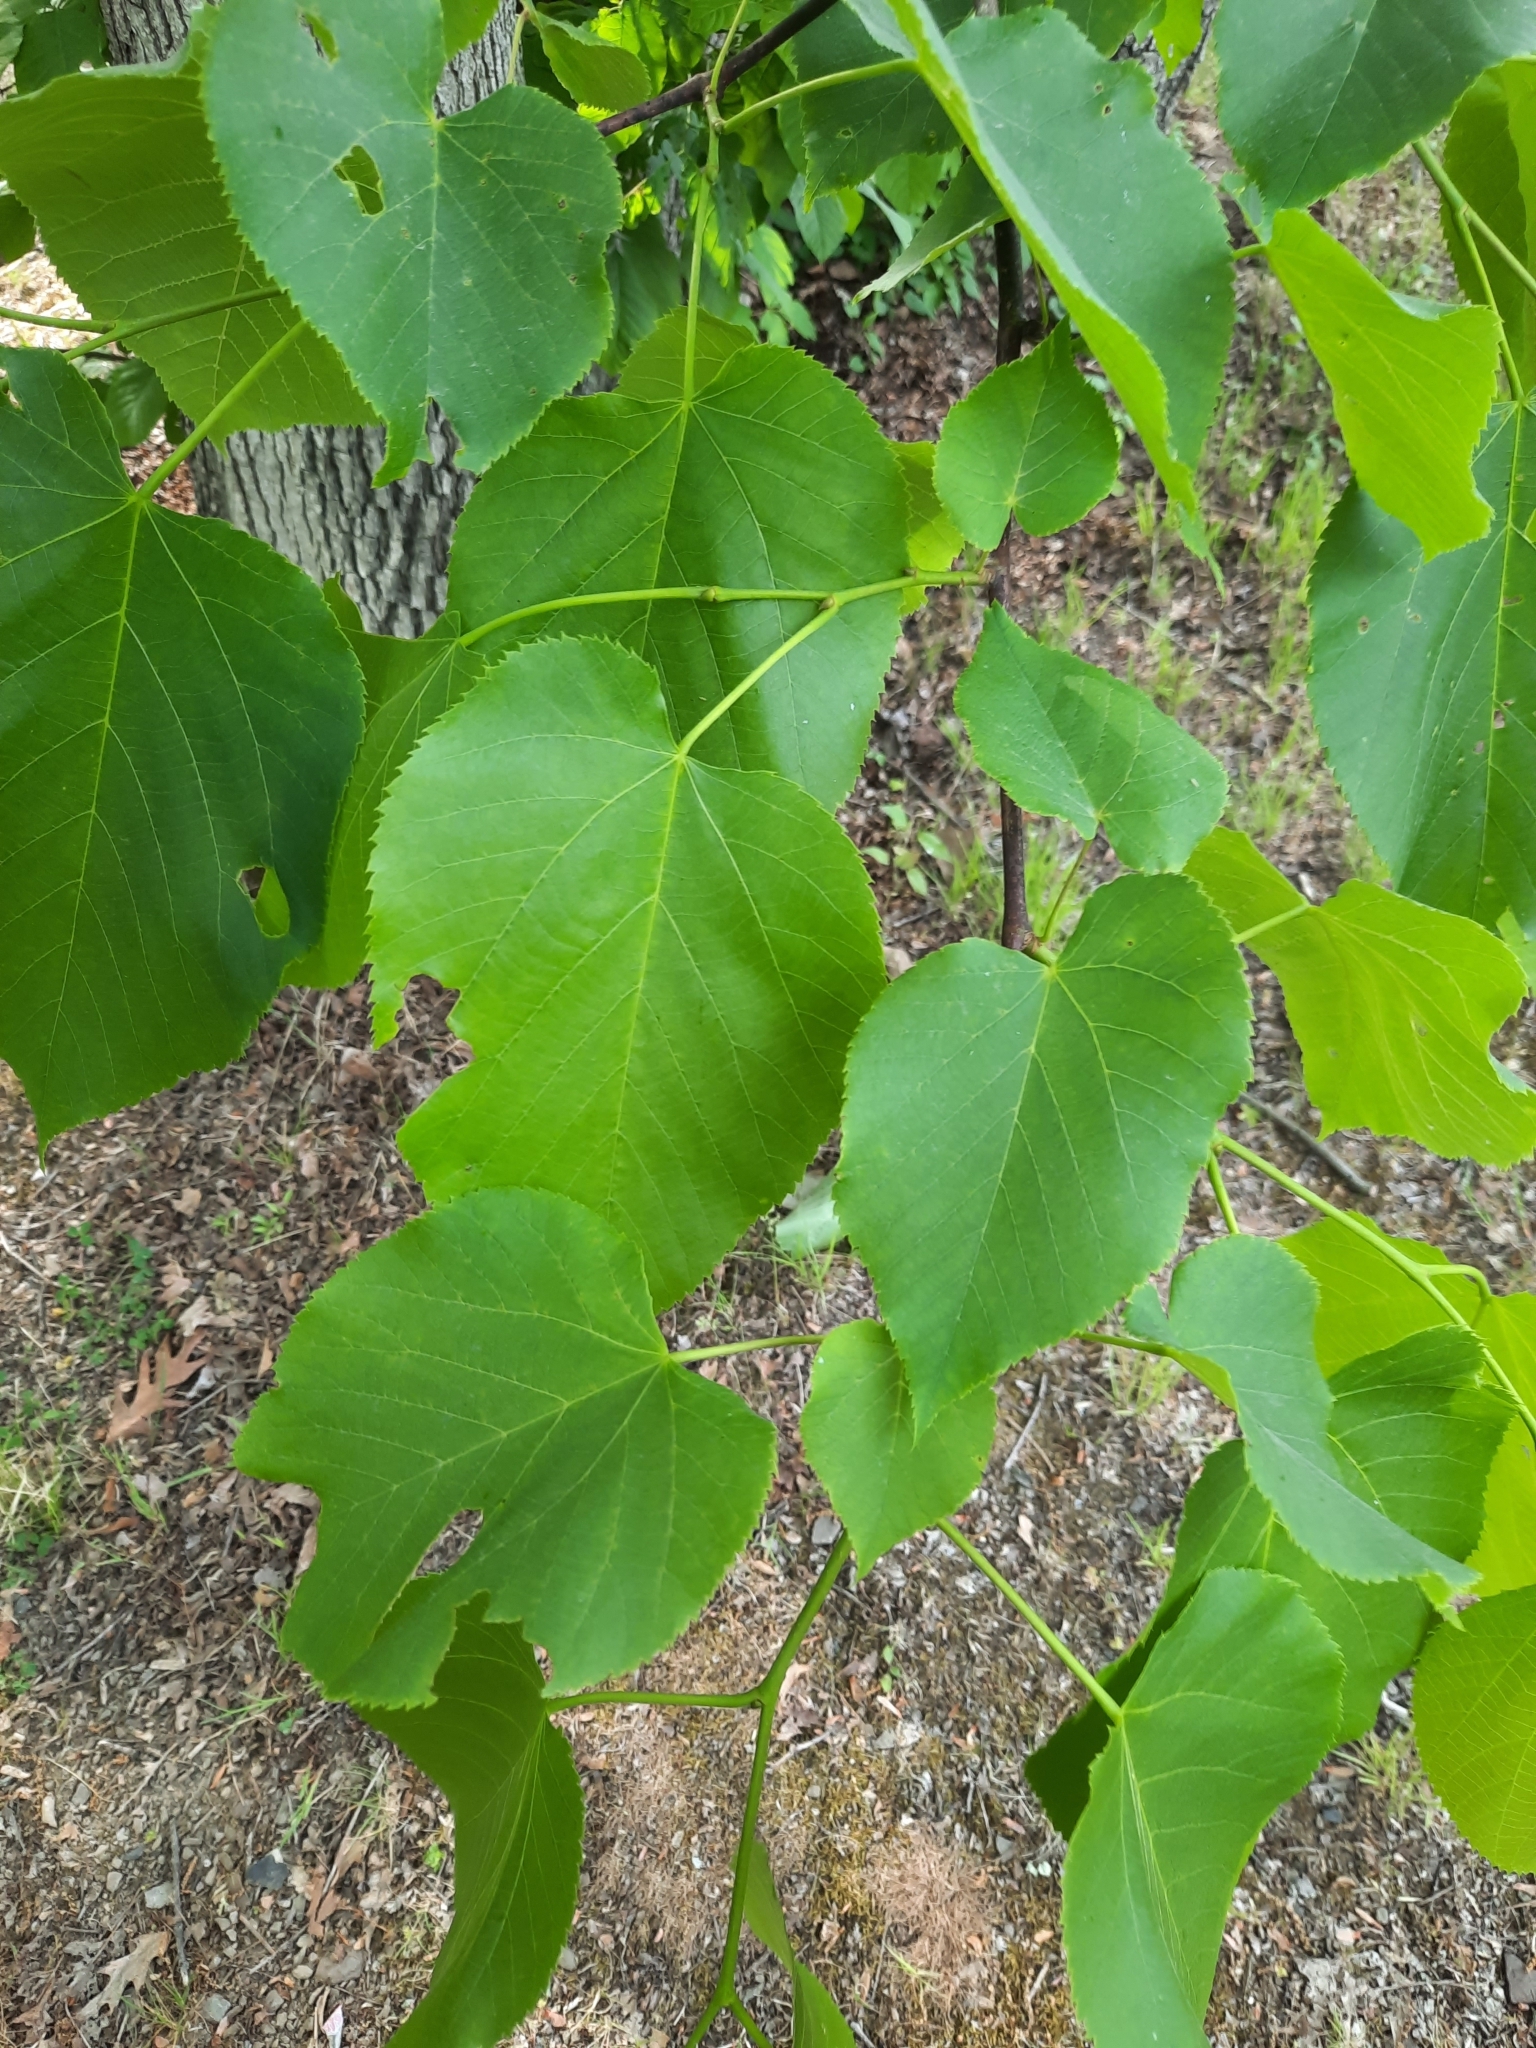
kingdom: Plantae
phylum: Tracheophyta
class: Magnoliopsida
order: Malvales
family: Malvaceae
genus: Tilia
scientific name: Tilia americana
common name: Basswood
